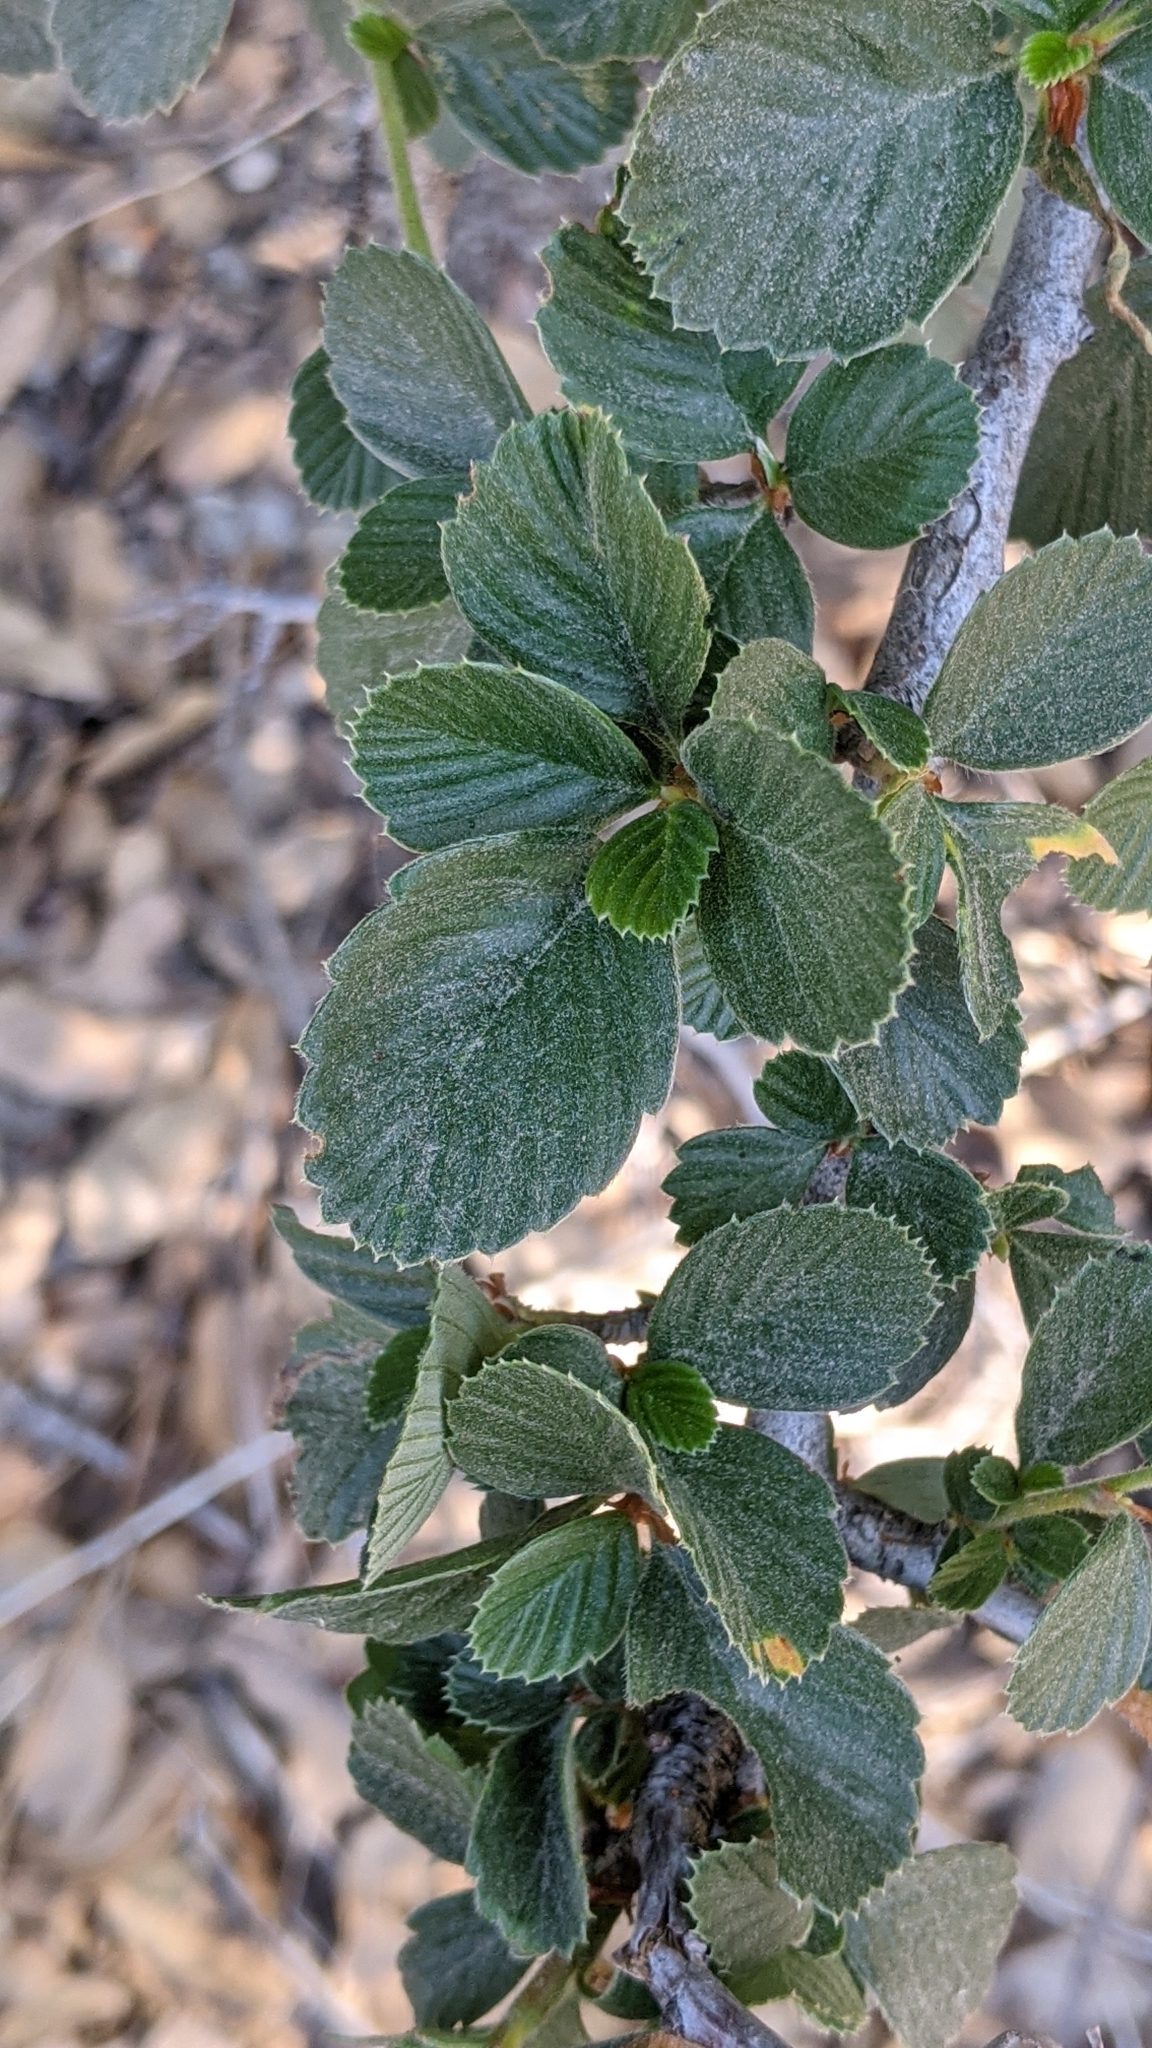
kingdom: Plantae
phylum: Tracheophyta
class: Magnoliopsida
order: Rosales
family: Rosaceae
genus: Cercocarpus
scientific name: Cercocarpus betuloides
